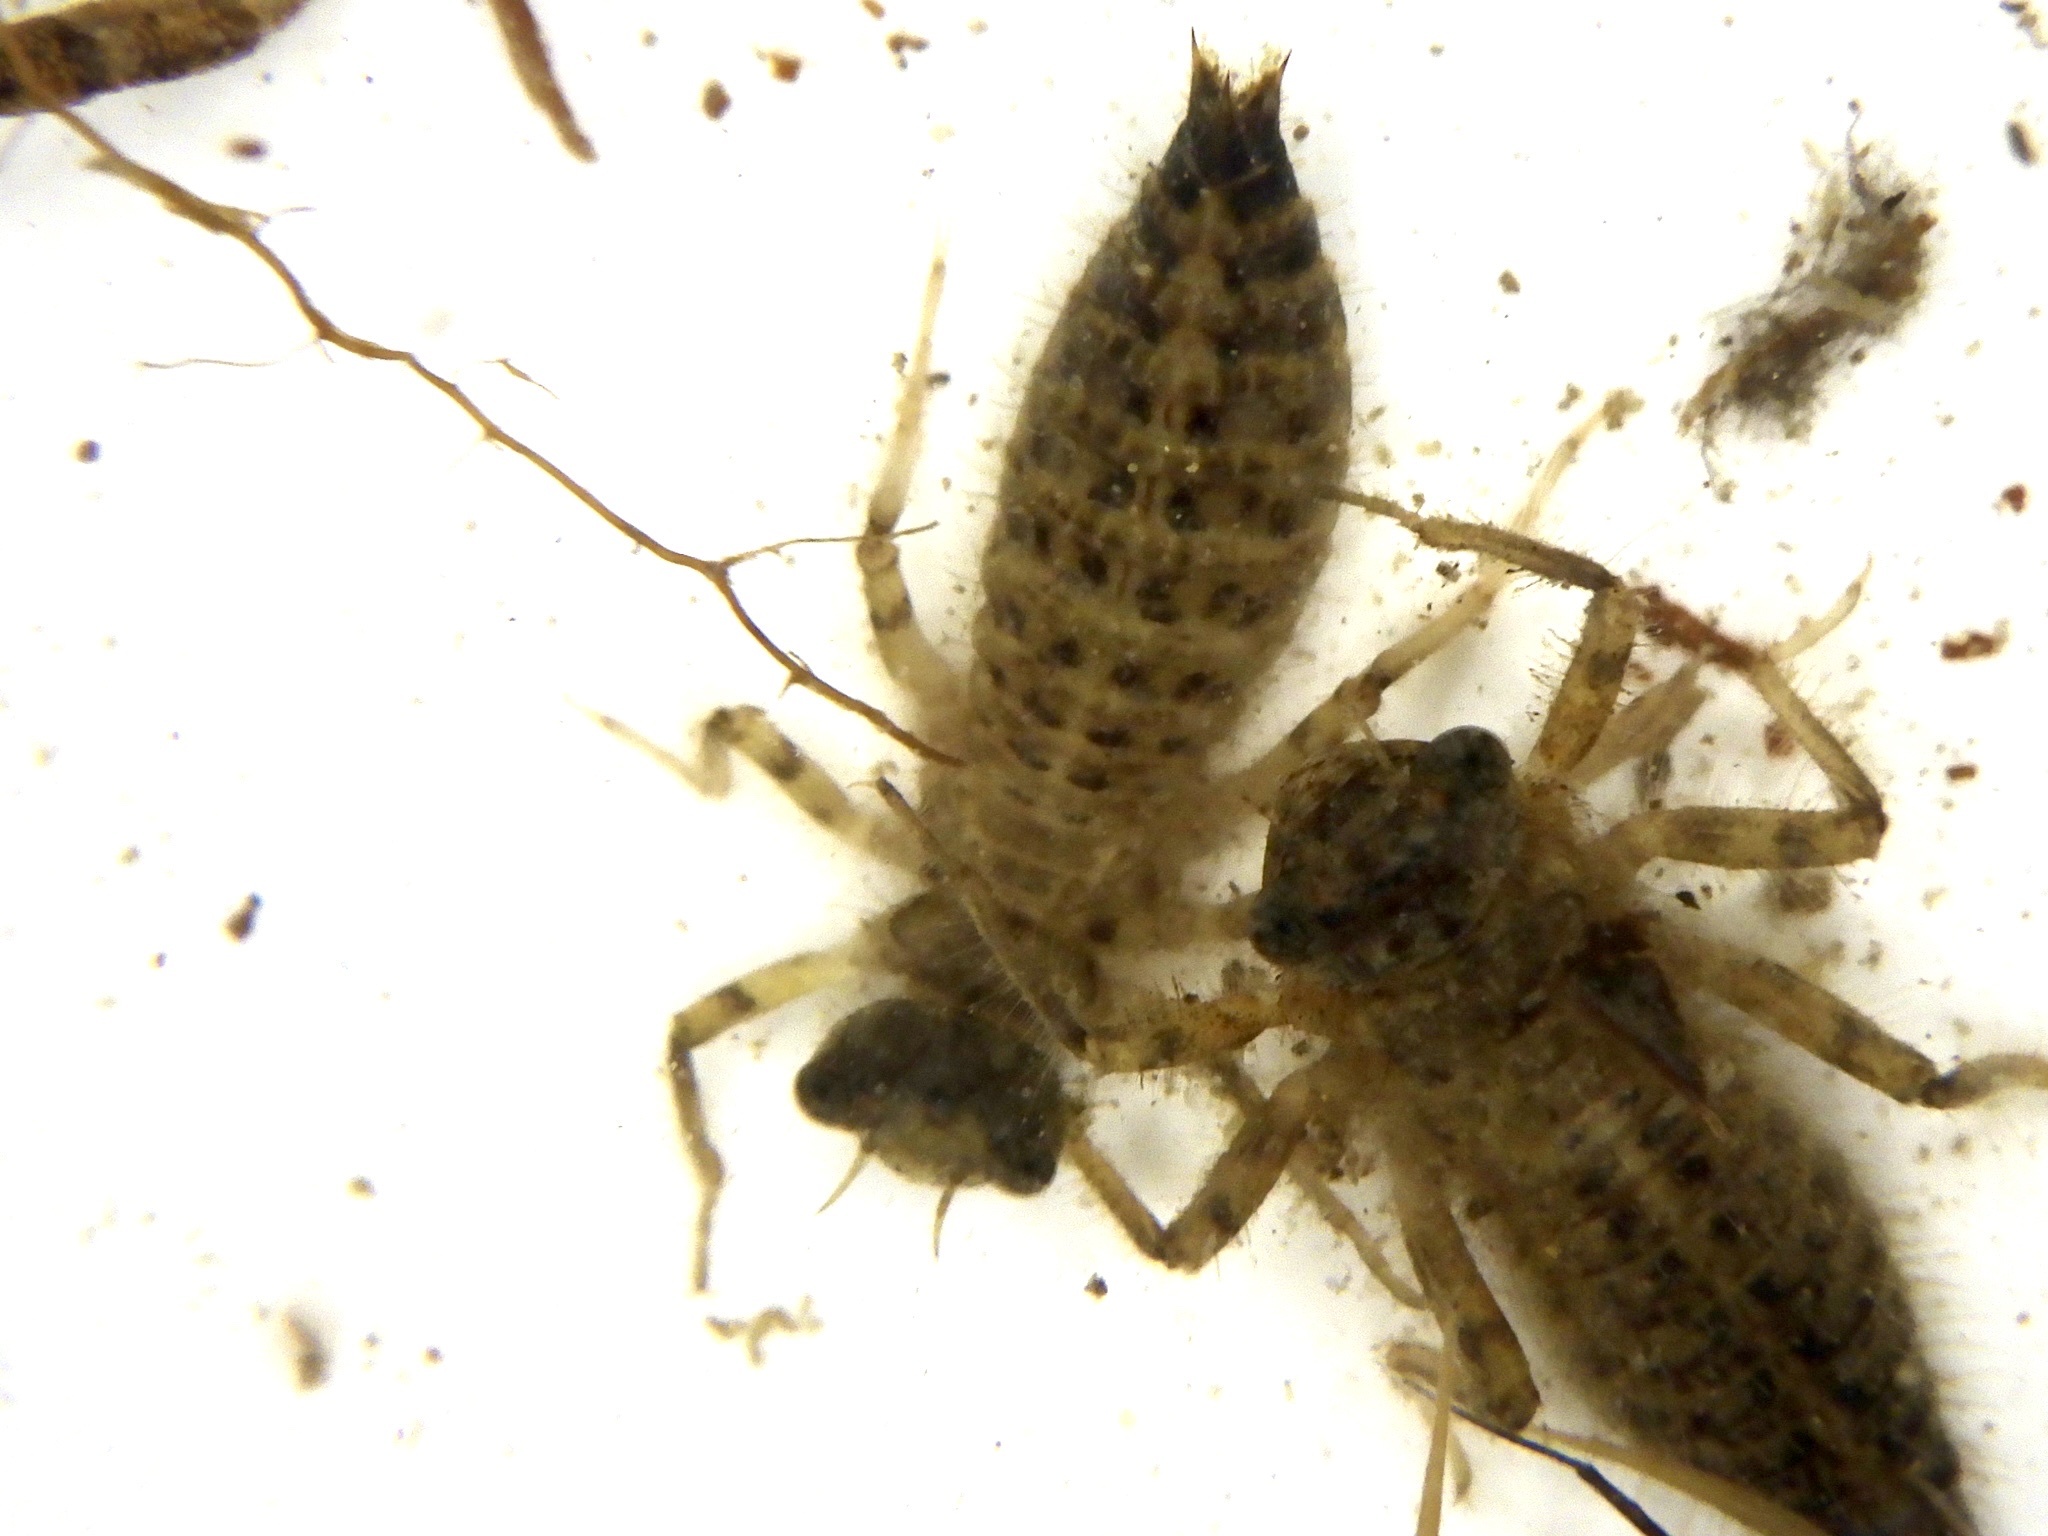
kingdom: Animalia
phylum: Arthropoda
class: Insecta
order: Odonata
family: Cordulegastridae
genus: Anotogaster
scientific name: Anotogaster sieboldii
